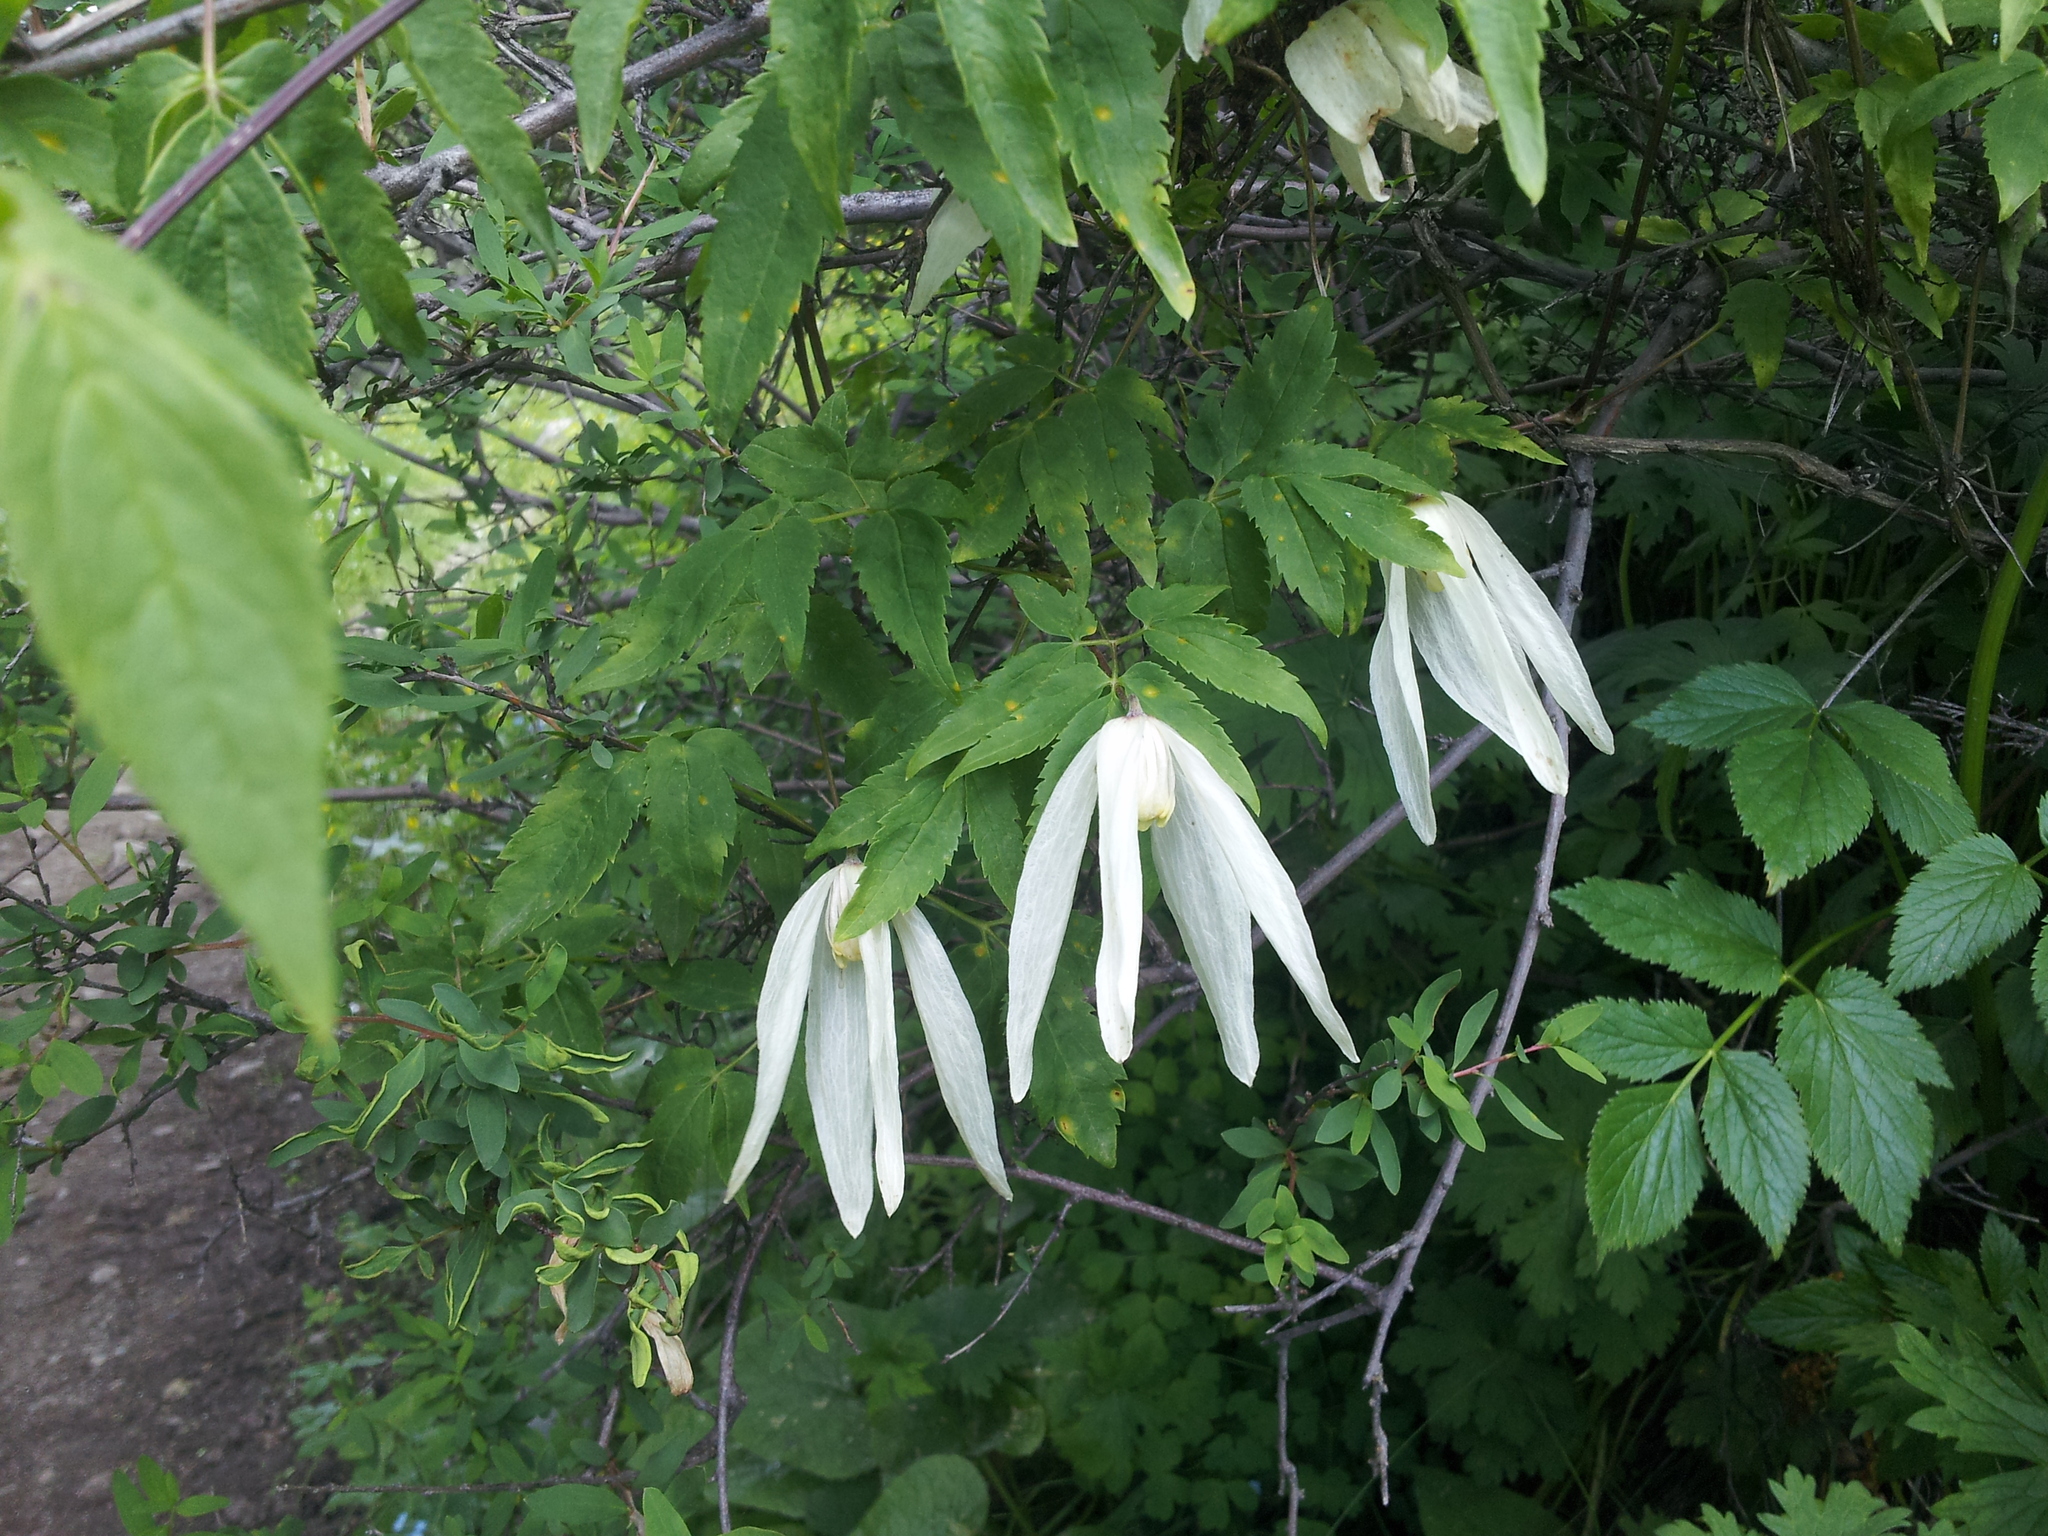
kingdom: Plantae
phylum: Tracheophyta
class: Magnoliopsida
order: Ranunculales
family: Ranunculaceae
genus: Clematis
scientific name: Clematis sibirica
